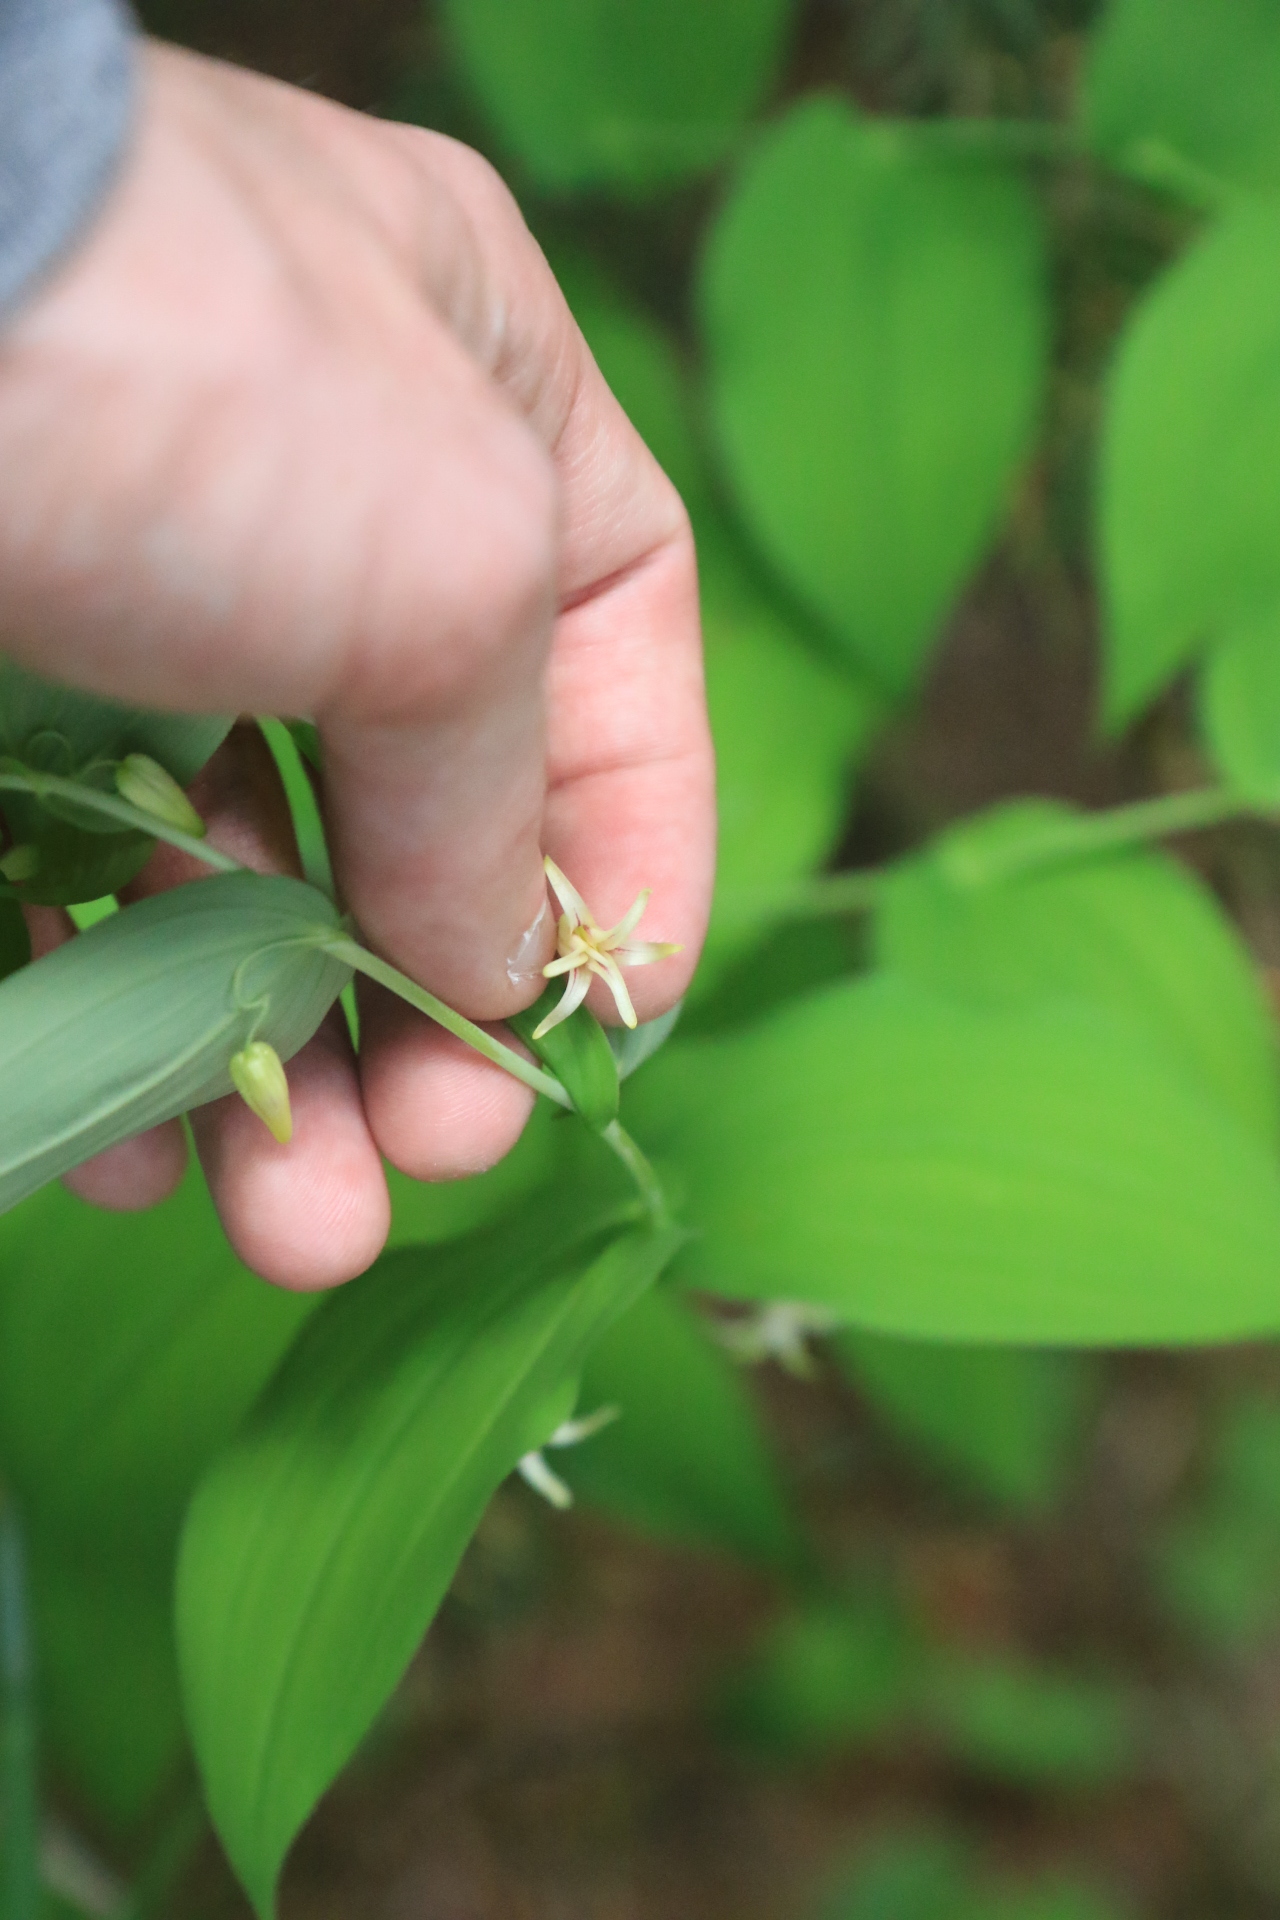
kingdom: Plantae
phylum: Tracheophyta
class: Liliopsida
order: Liliales
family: Liliaceae
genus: Streptopus
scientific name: Streptopus amplexifolius
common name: Clasp twisted stalk
